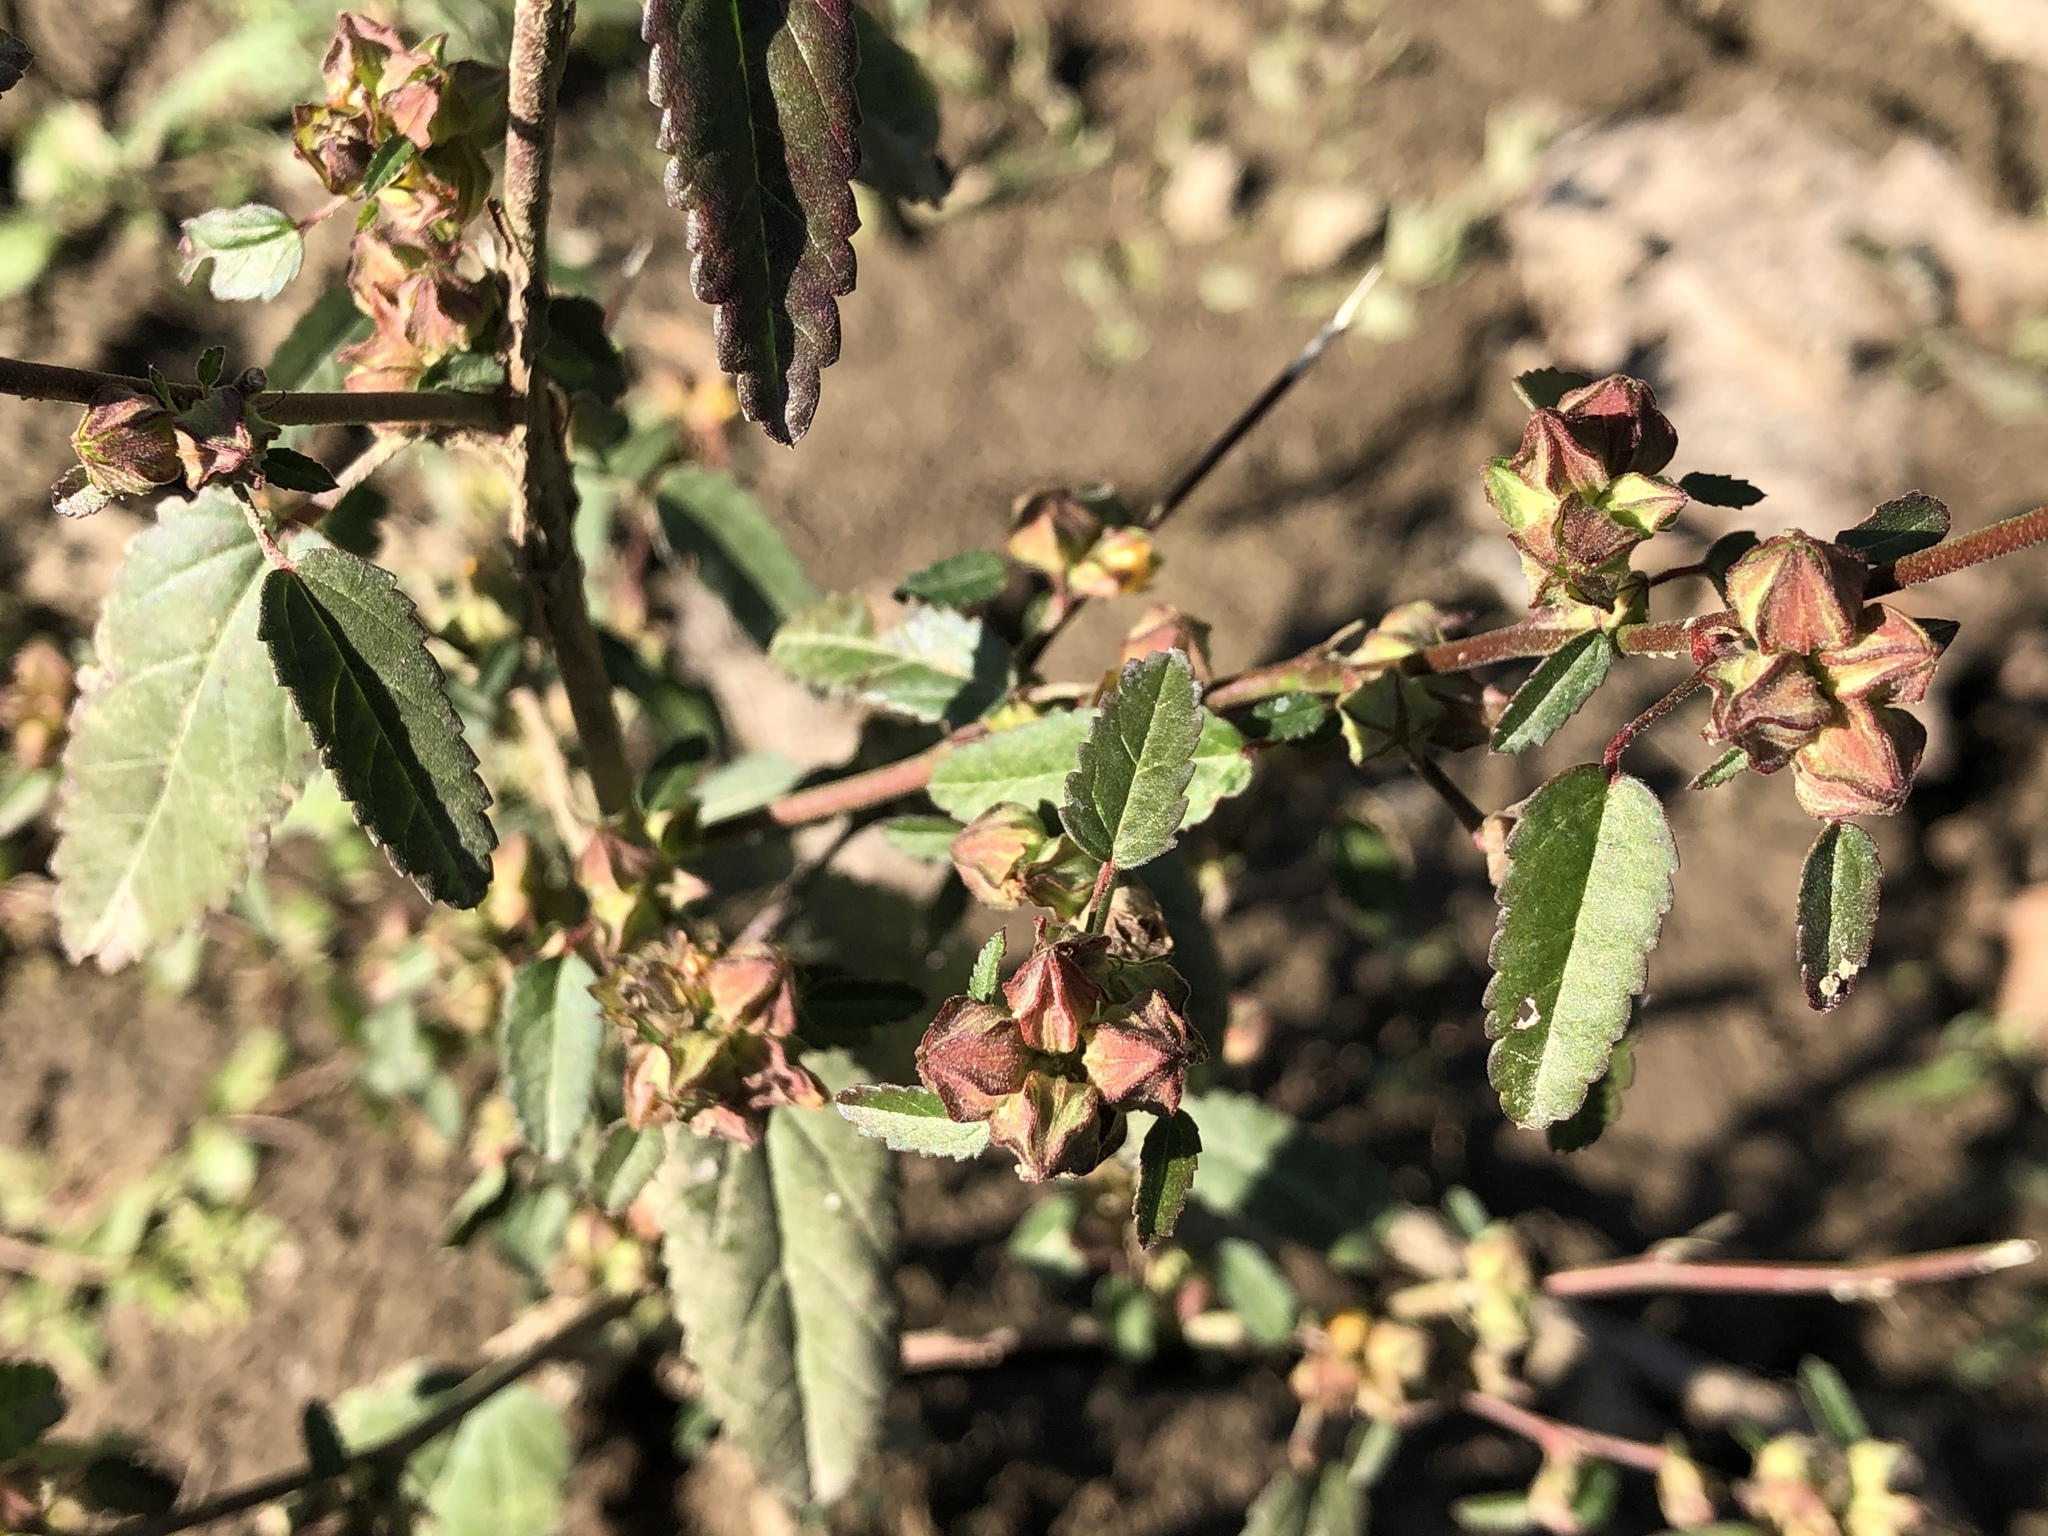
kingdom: Plantae
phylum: Tracheophyta
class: Magnoliopsida
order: Malvales
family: Malvaceae
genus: Sida
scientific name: Sida spinosa
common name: Prickly fanpetals
